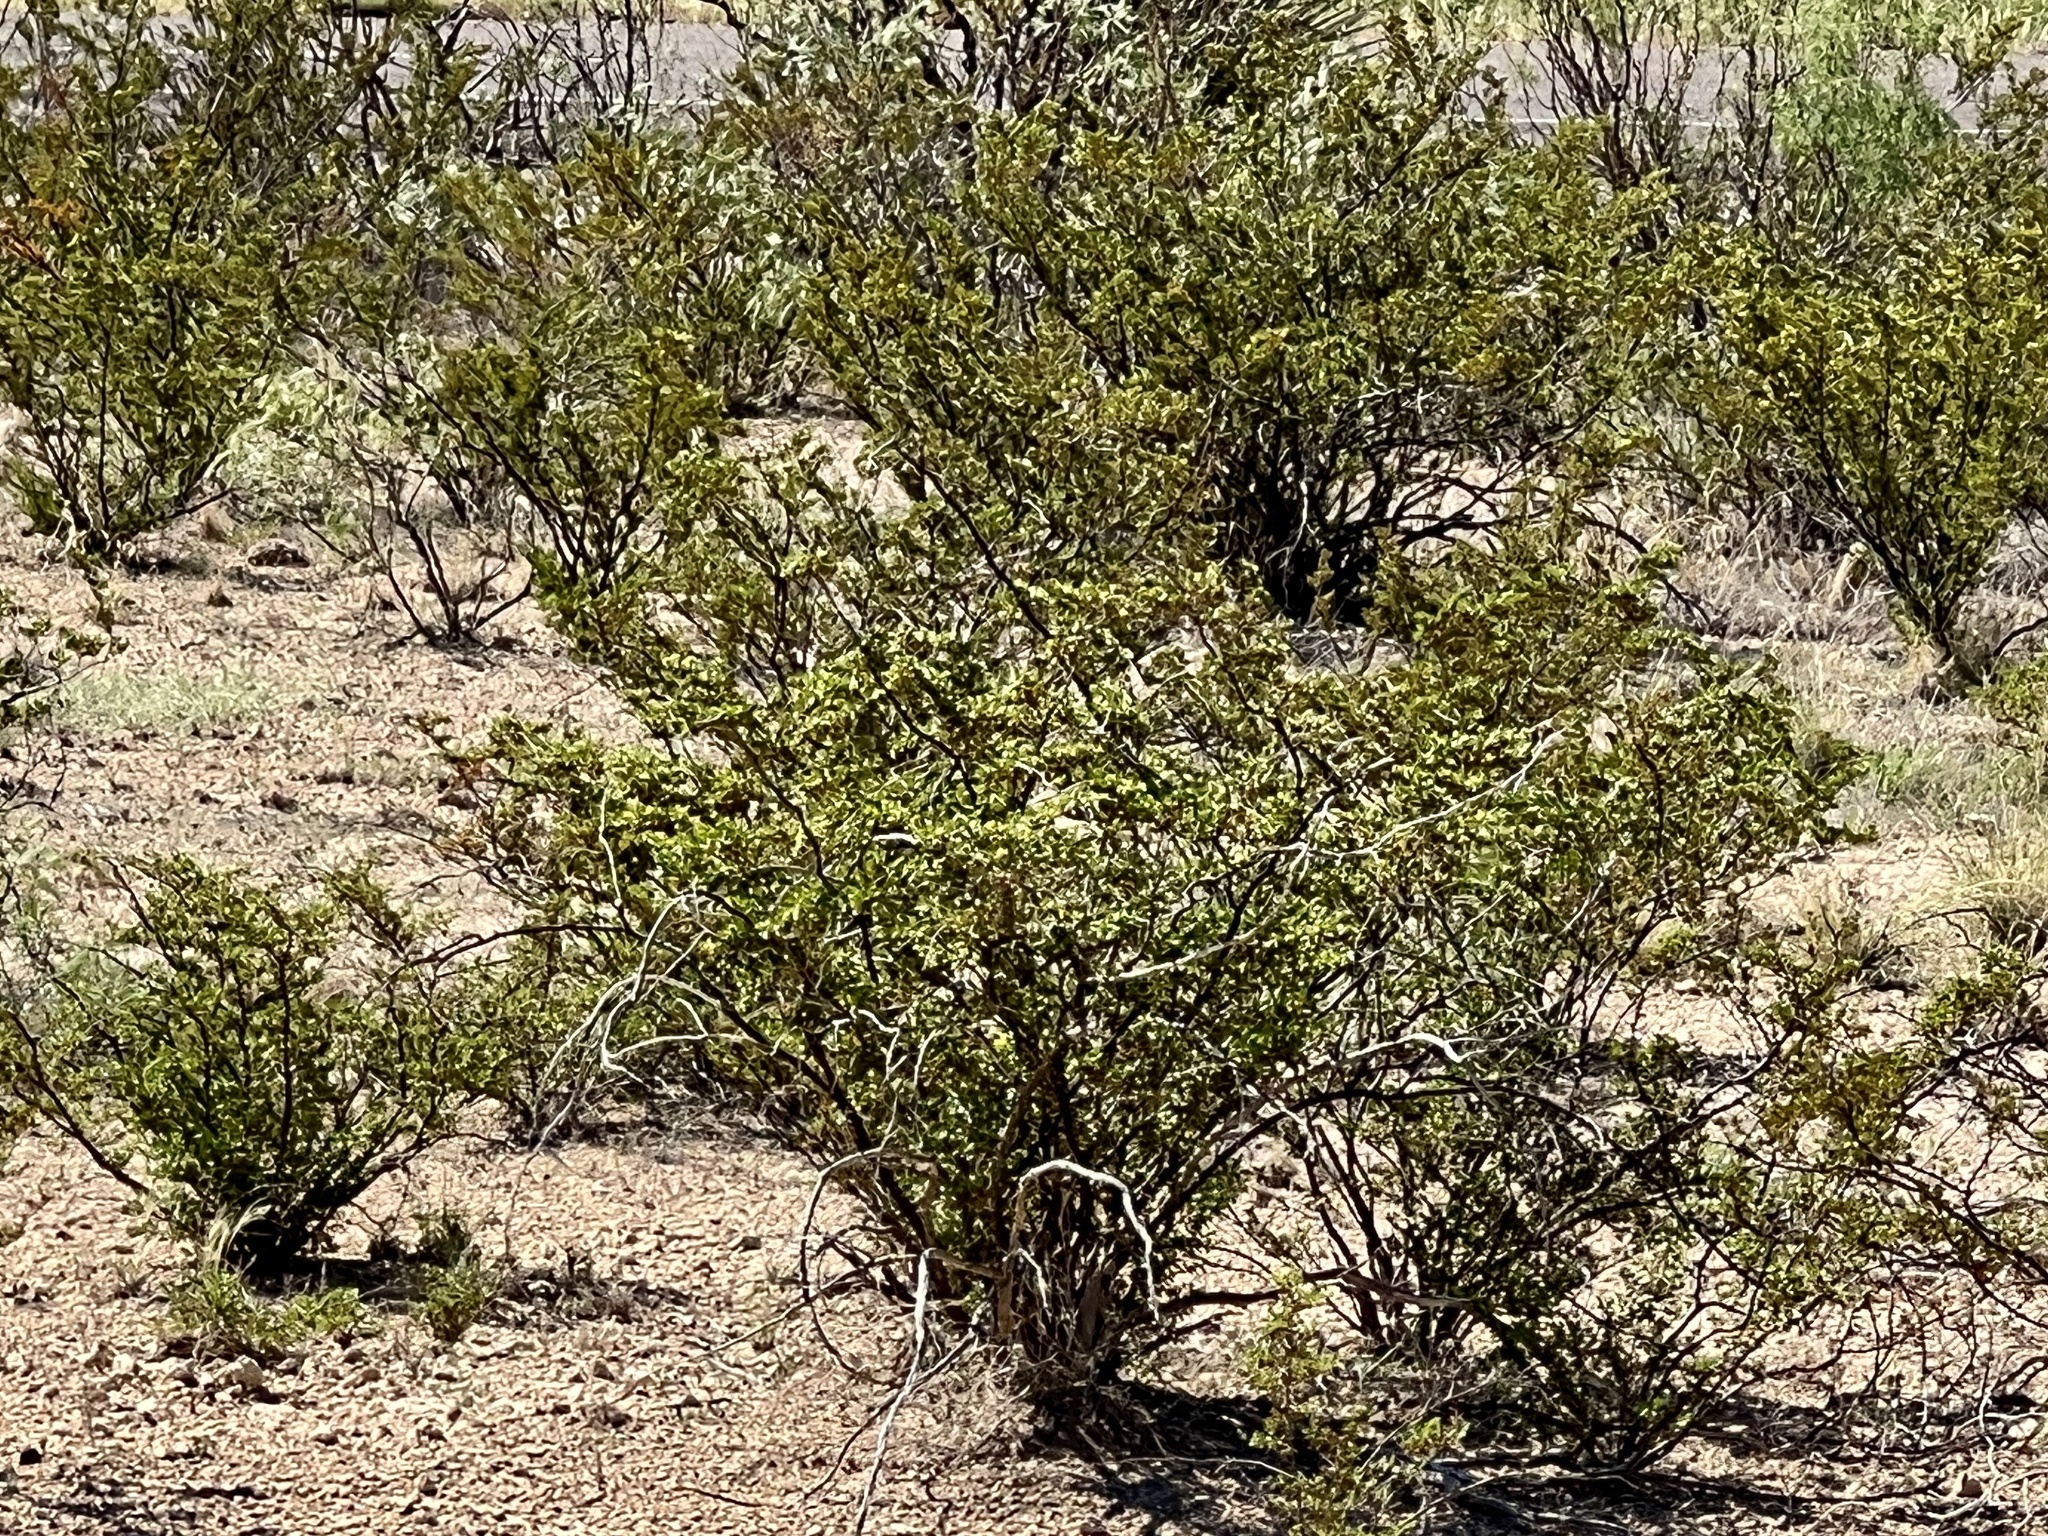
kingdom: Plantae
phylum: Tracheophyta
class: Magnoliopsida
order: Zygophyllales
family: Zygophyllaceae
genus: Larrea
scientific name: Larrea tridentata
